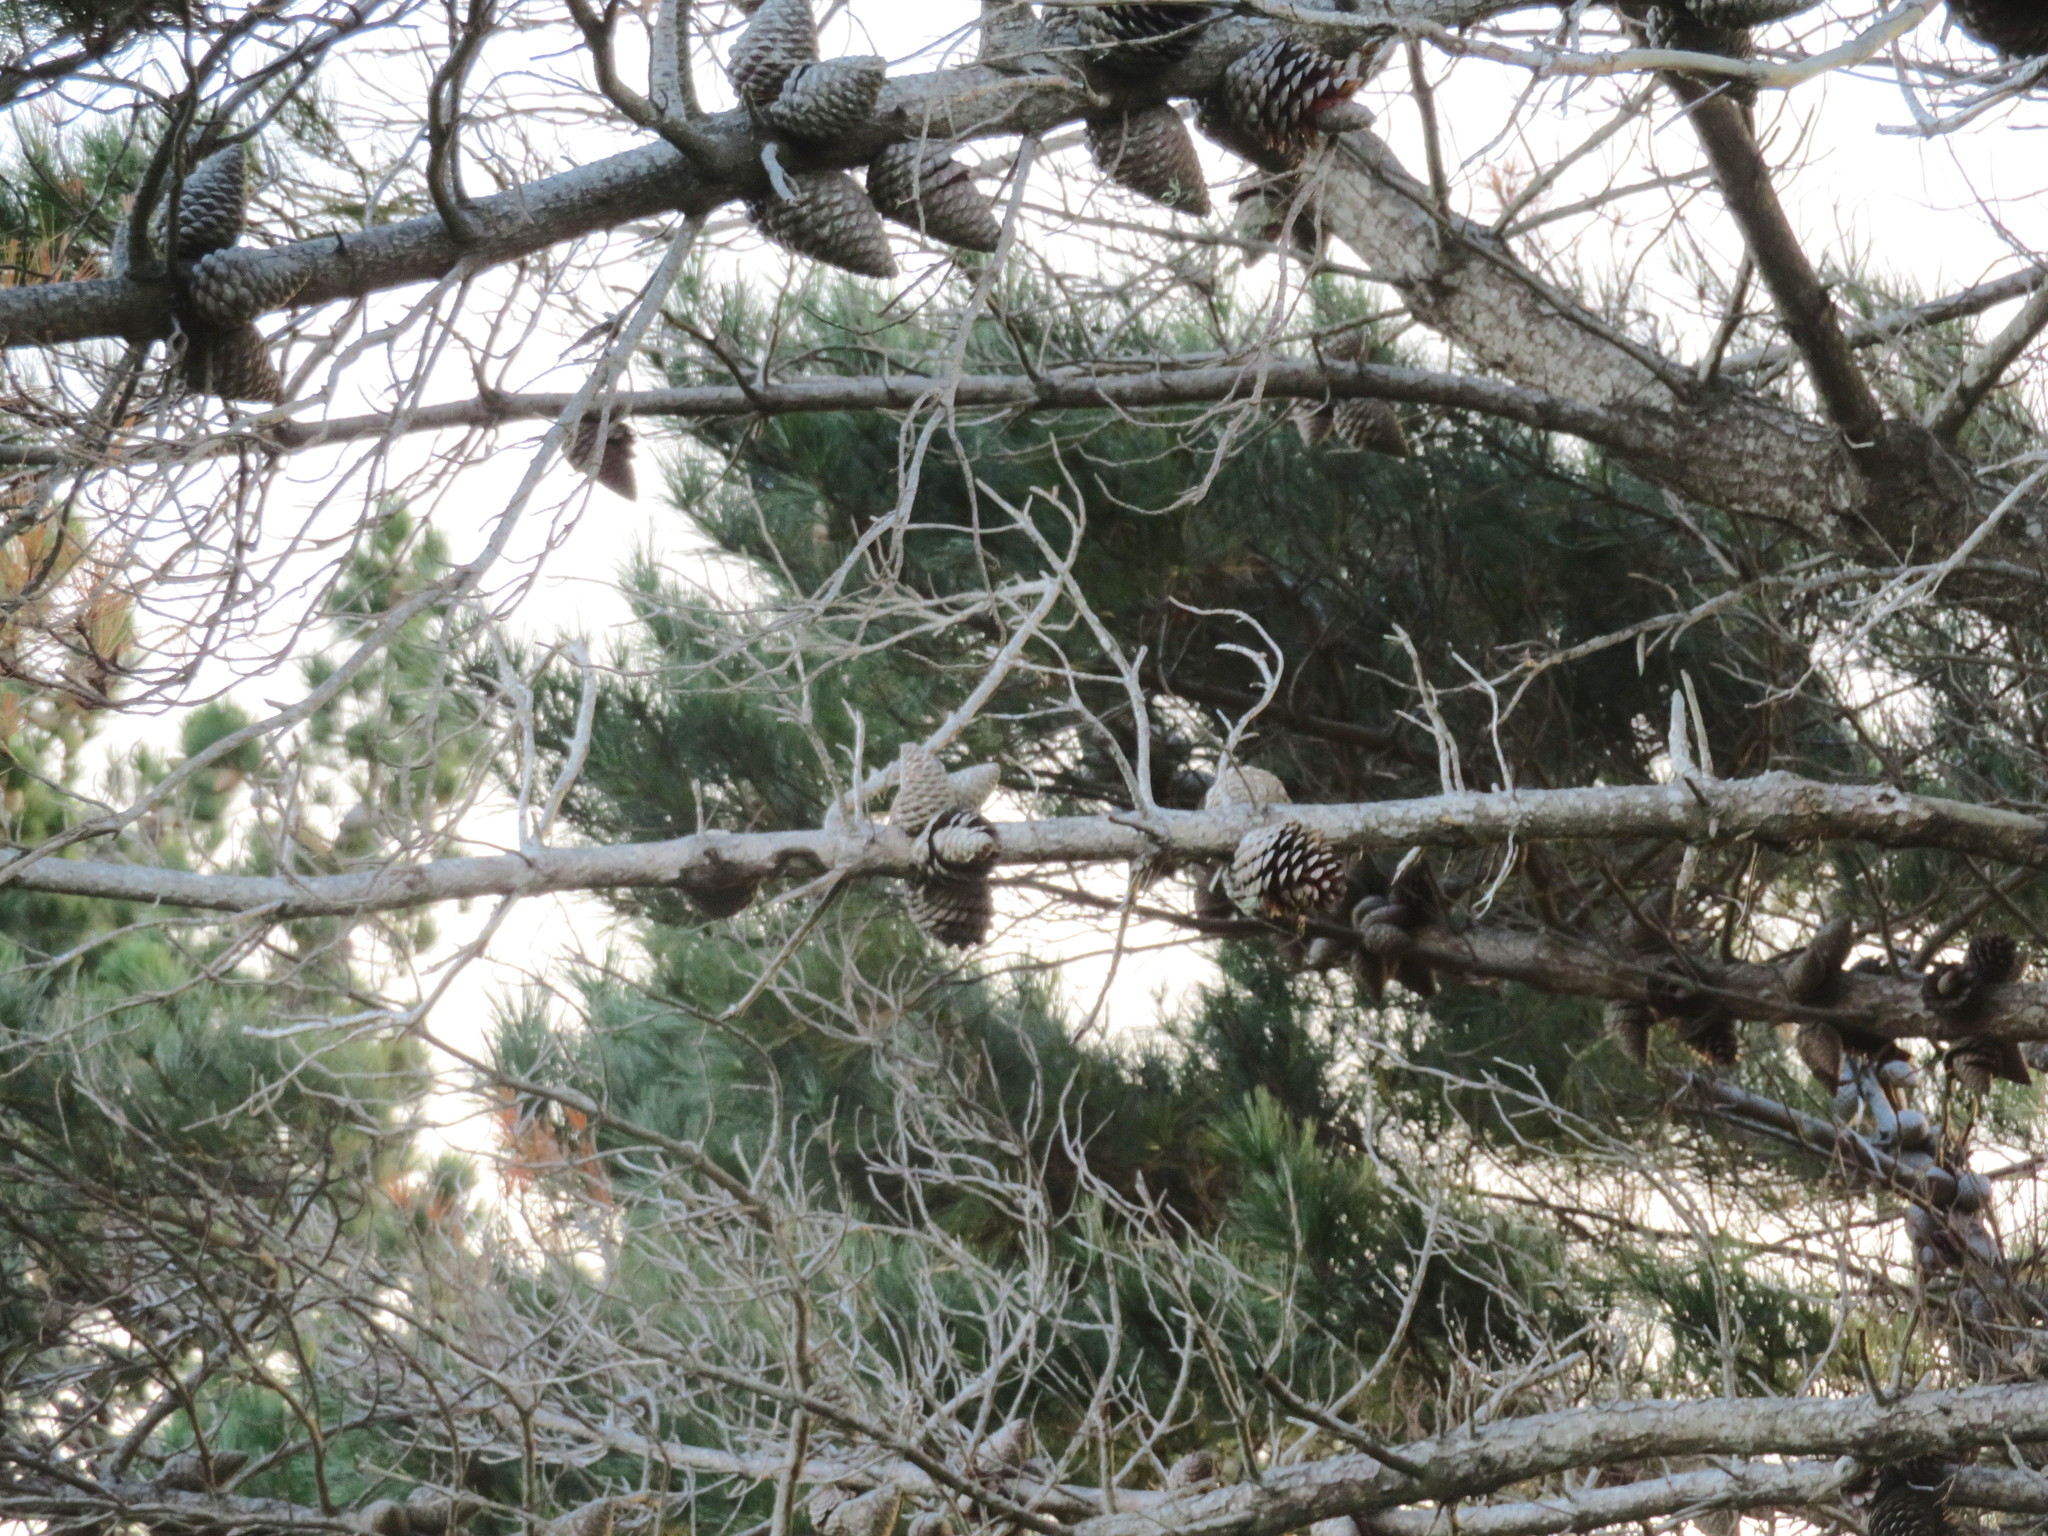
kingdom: Plantae
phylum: Tracheophyta
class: Pinopsida
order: Pinales
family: Pinaceae
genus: Pinus
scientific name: Pinus radiata
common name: Monterey pine
